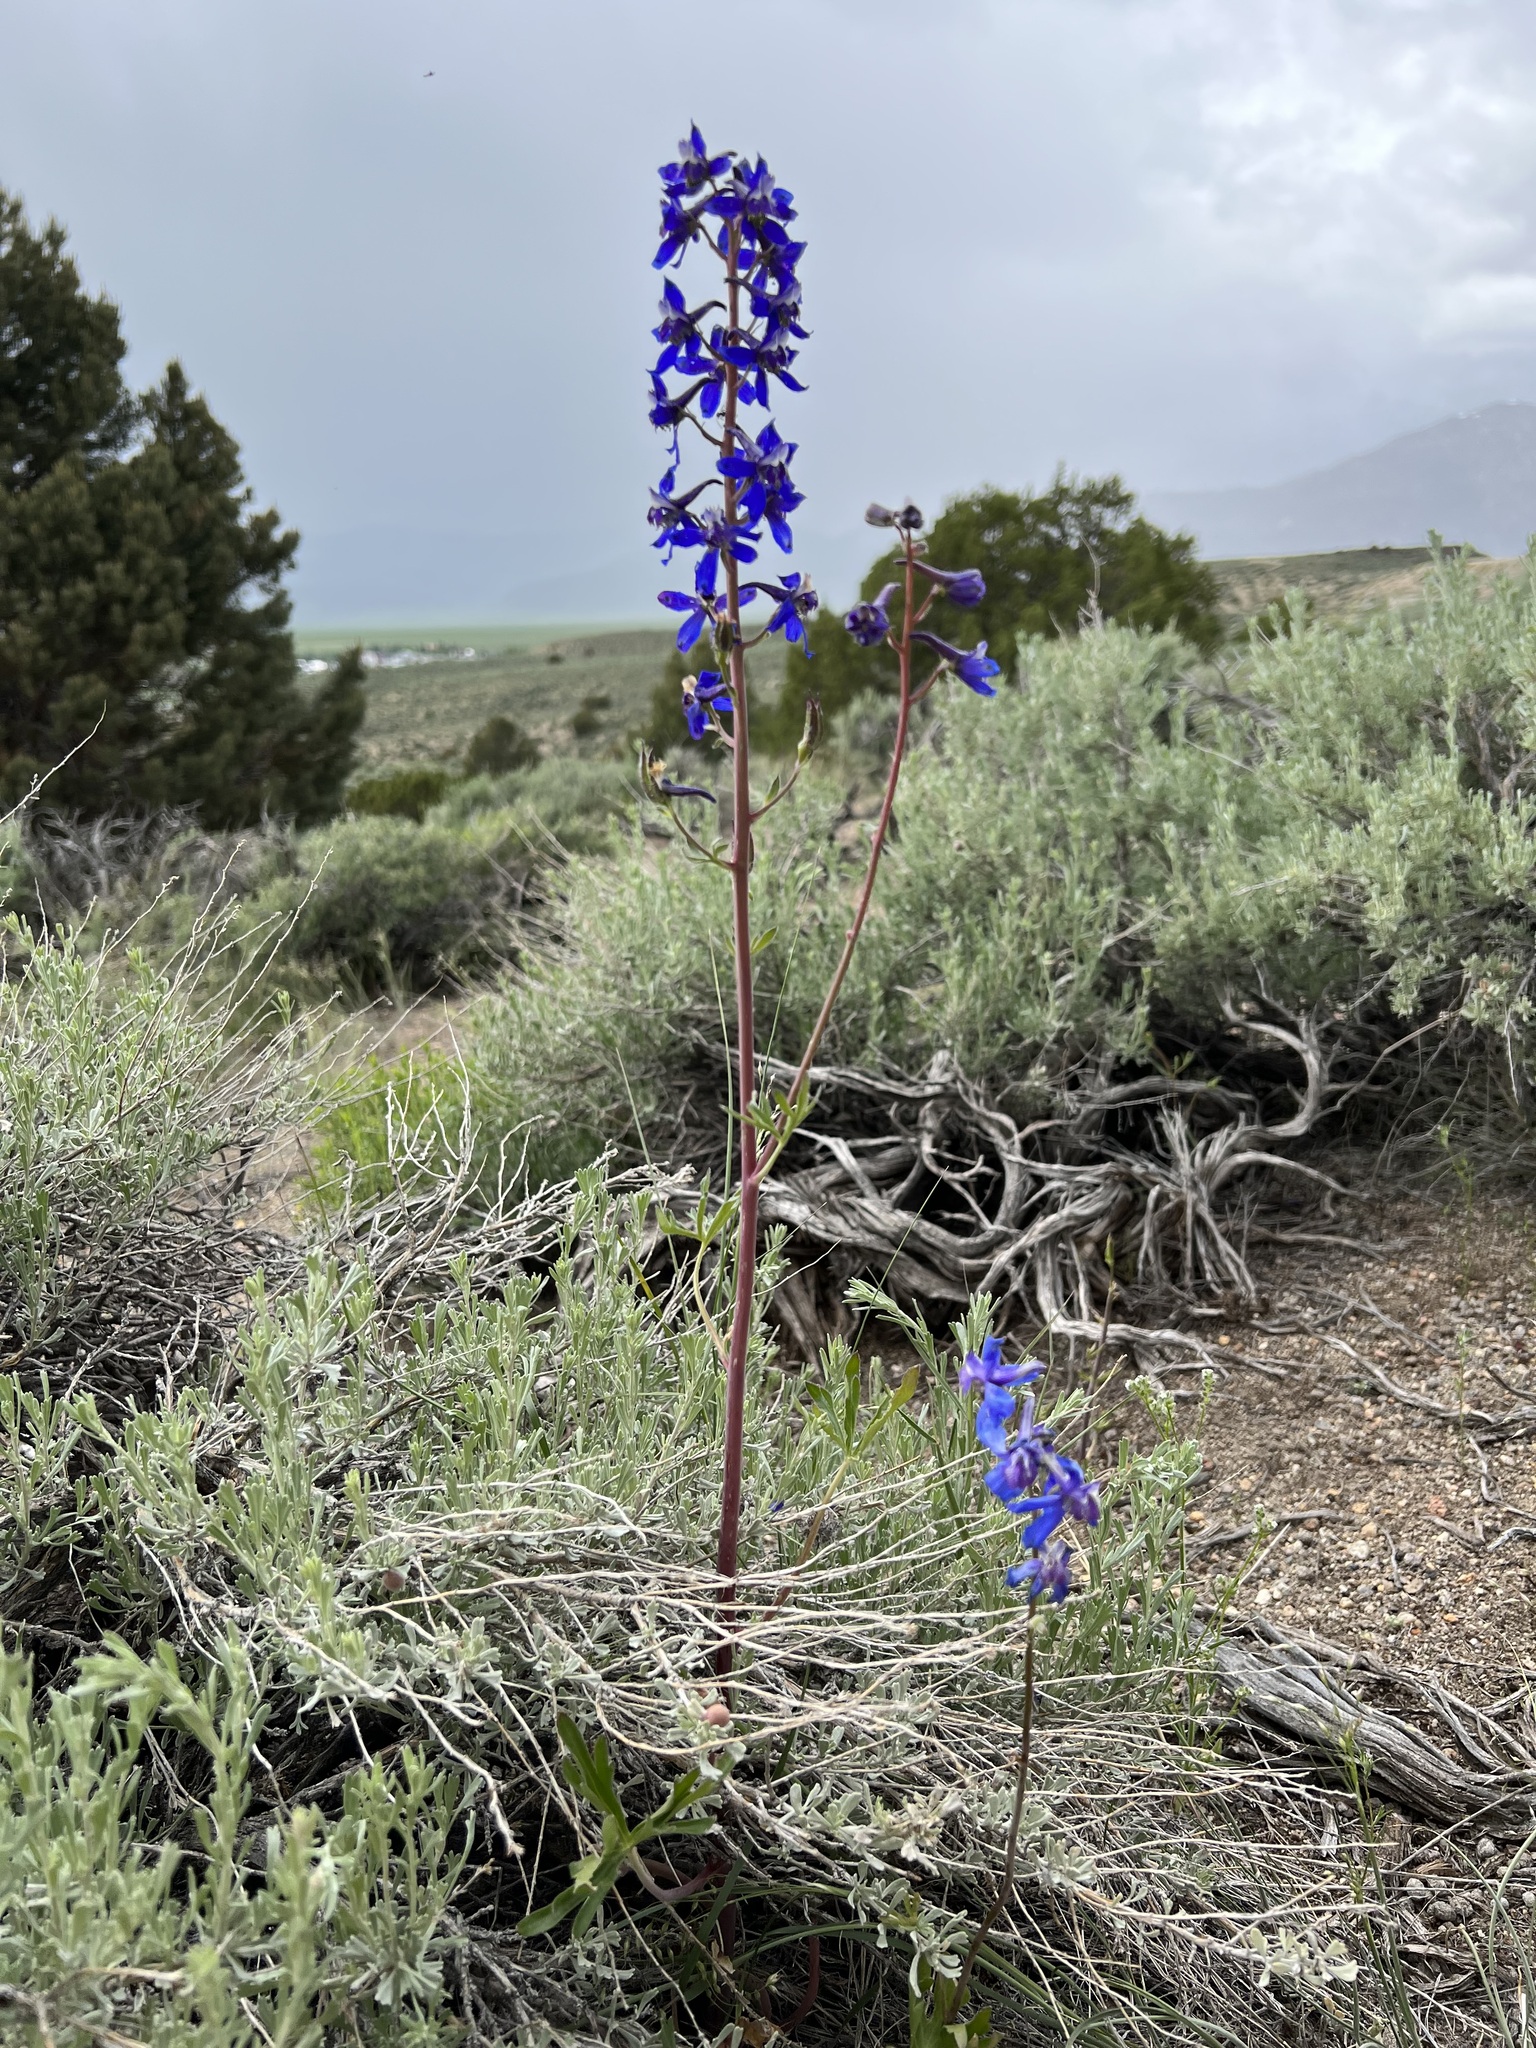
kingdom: Plantae
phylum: Tracheophyta
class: Magnoliopsida
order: Ranunculales
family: Ranunculaceae
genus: Delphinium
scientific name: Delphinium andersonii
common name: Anderson's larkspur
